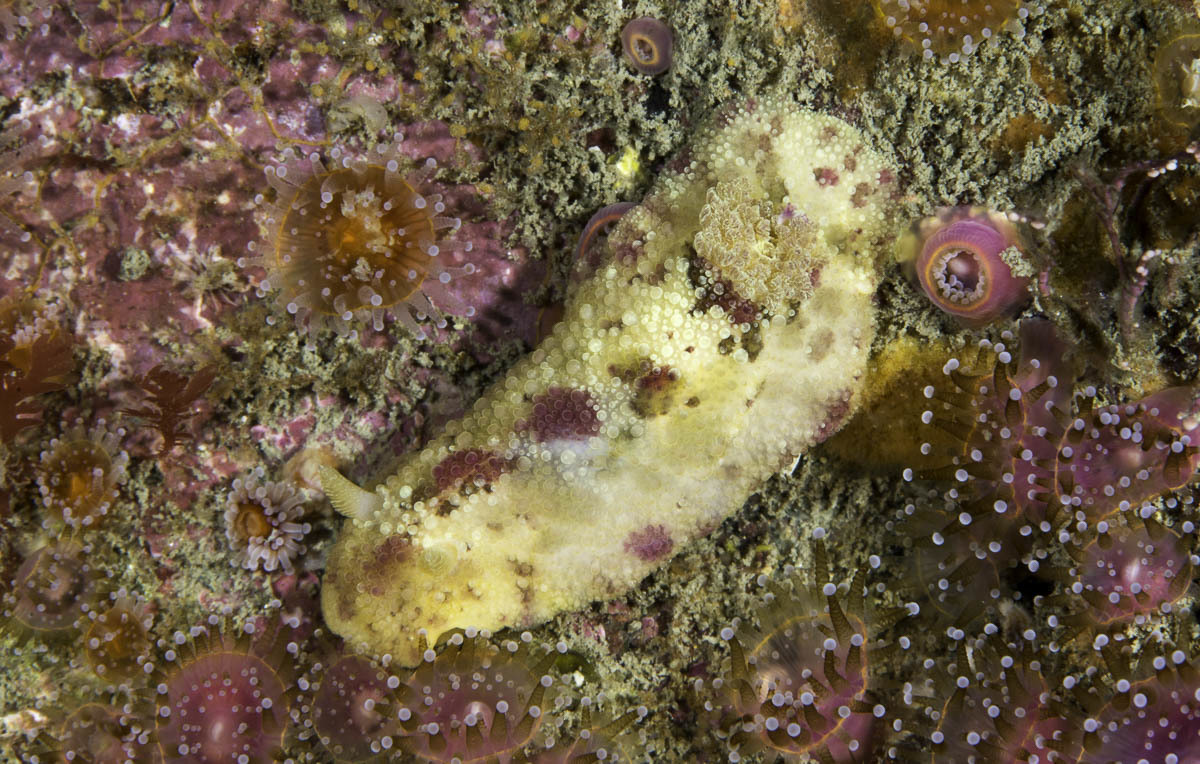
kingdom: Animalia
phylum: Mollusca
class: Gastropoda
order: Nudibranchia
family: Dorididae
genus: Doris
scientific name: Doris pseudoargus
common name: Sea lemon
